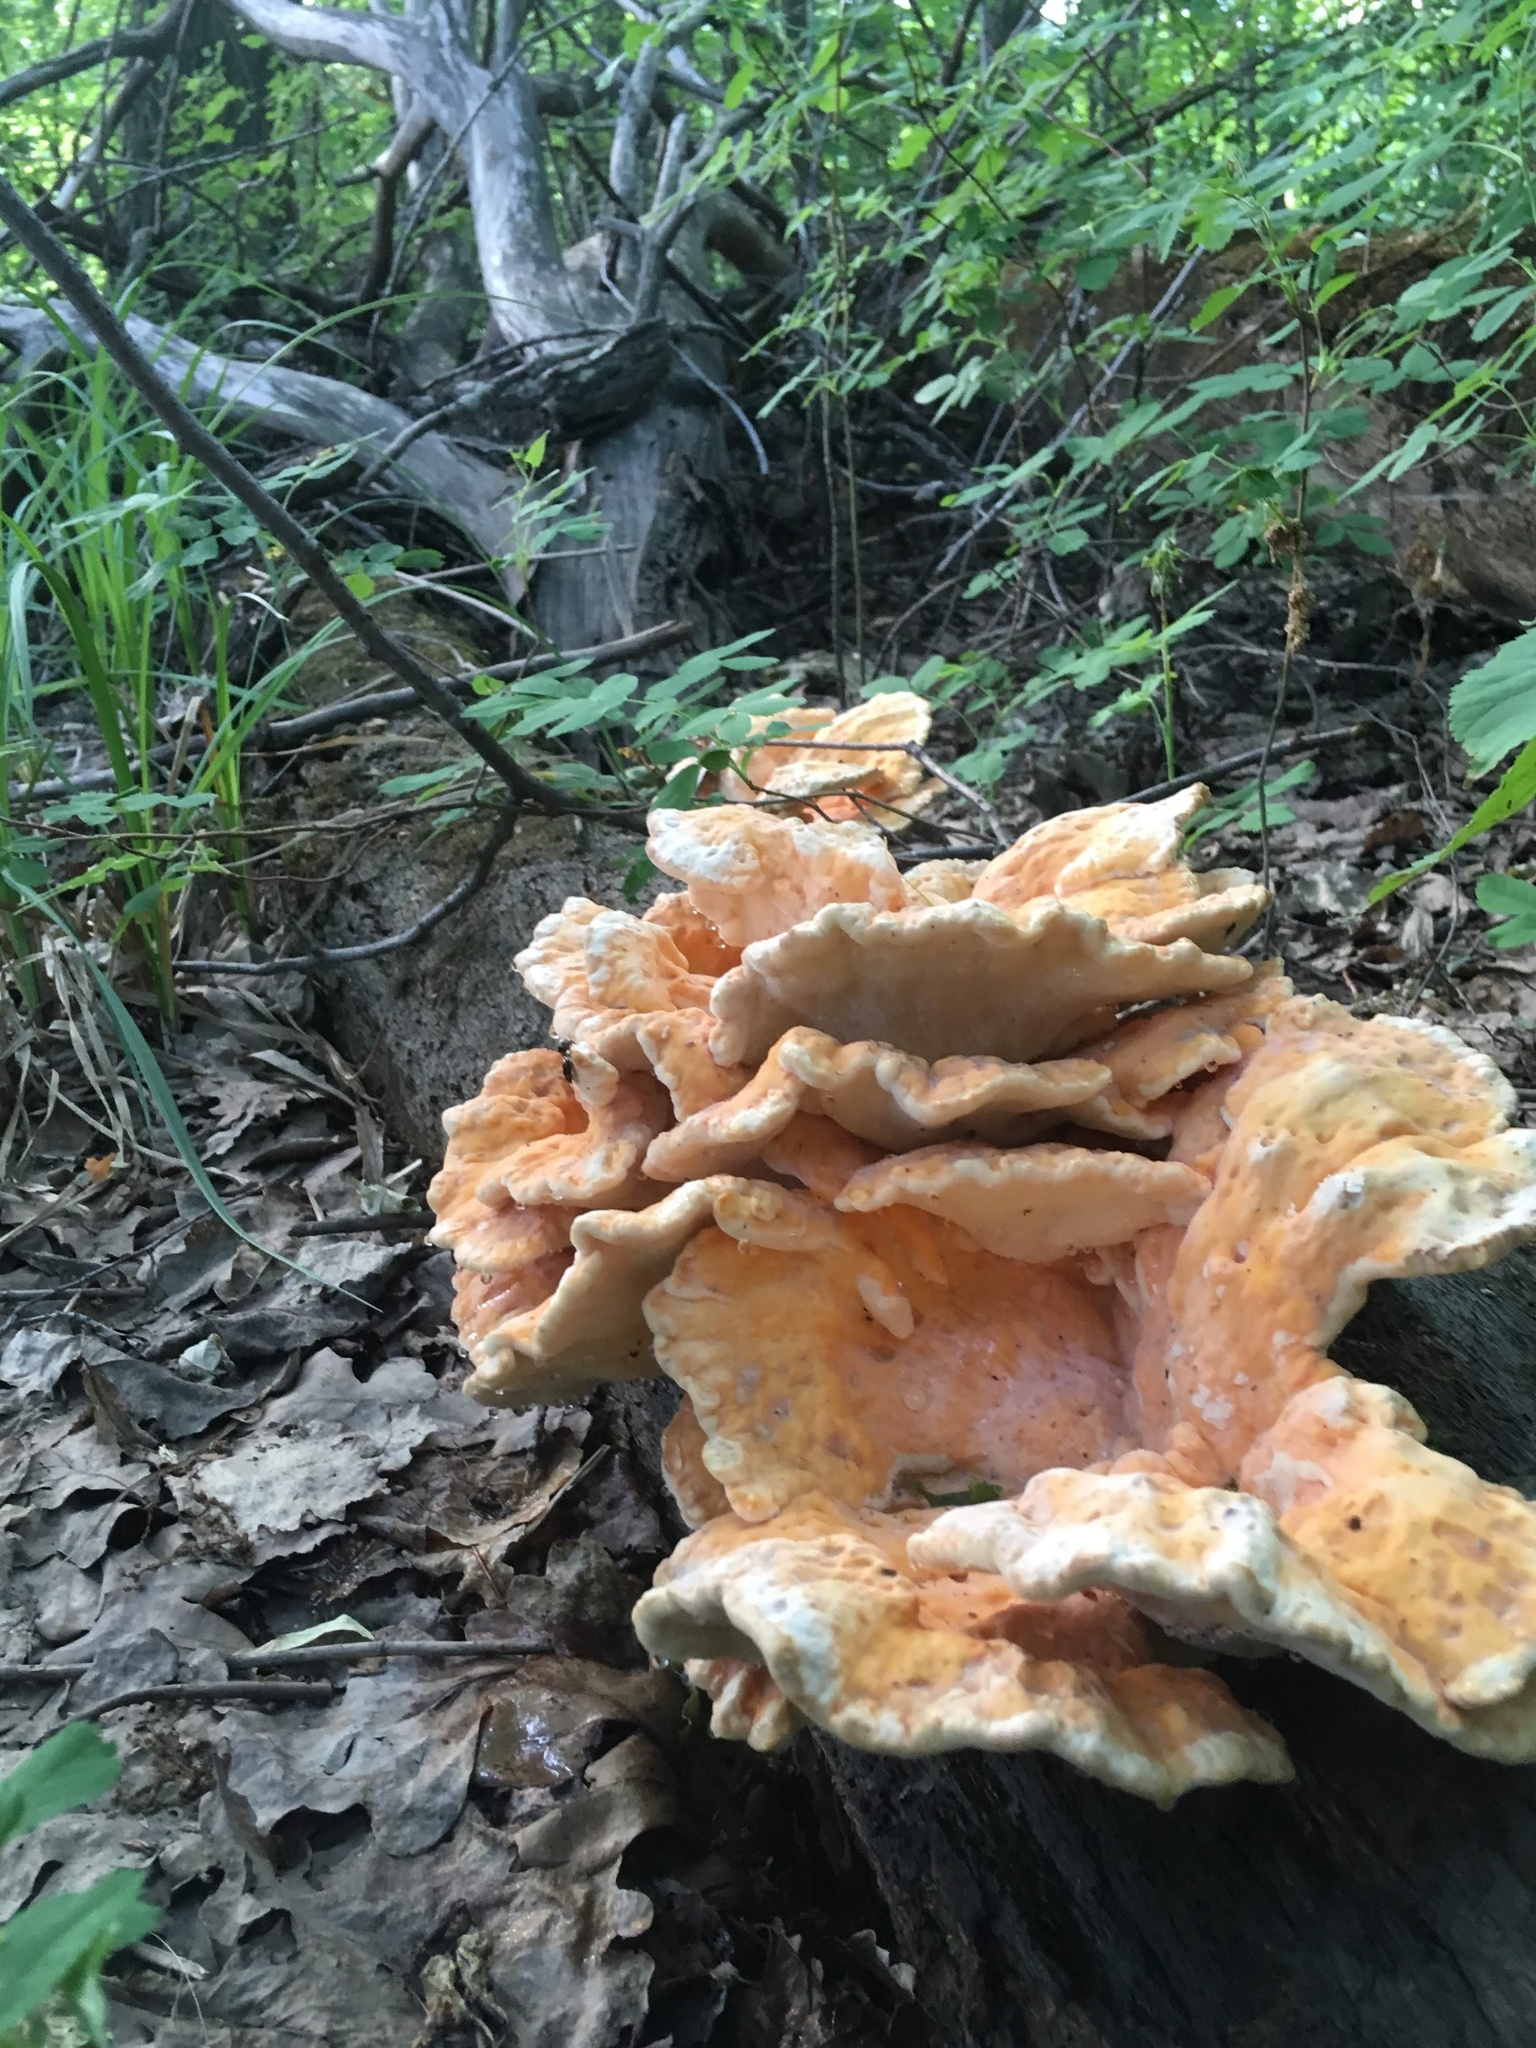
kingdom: Fungi
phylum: Basidiomycota
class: Agaricomycetes
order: Polyporales
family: Laetiporaceae
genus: Laetiporus
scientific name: Laetiporus sulphureus
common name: Chicken of the woods
